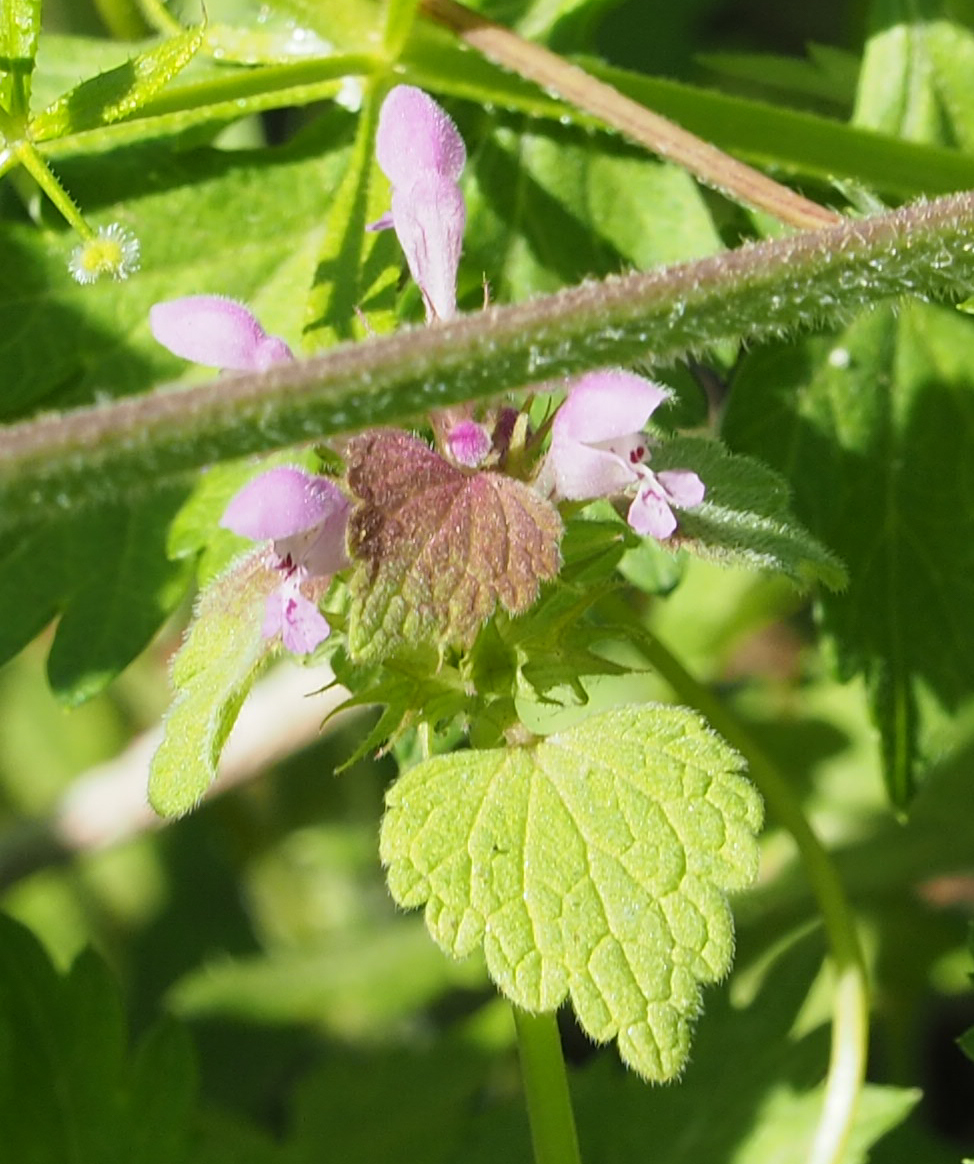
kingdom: Plantae
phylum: Tracheophyta
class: Magnoliopsida
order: Lamiales
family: Lamiaceae
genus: Lamium
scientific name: Lamium purpureum
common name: Red dead-nettle
